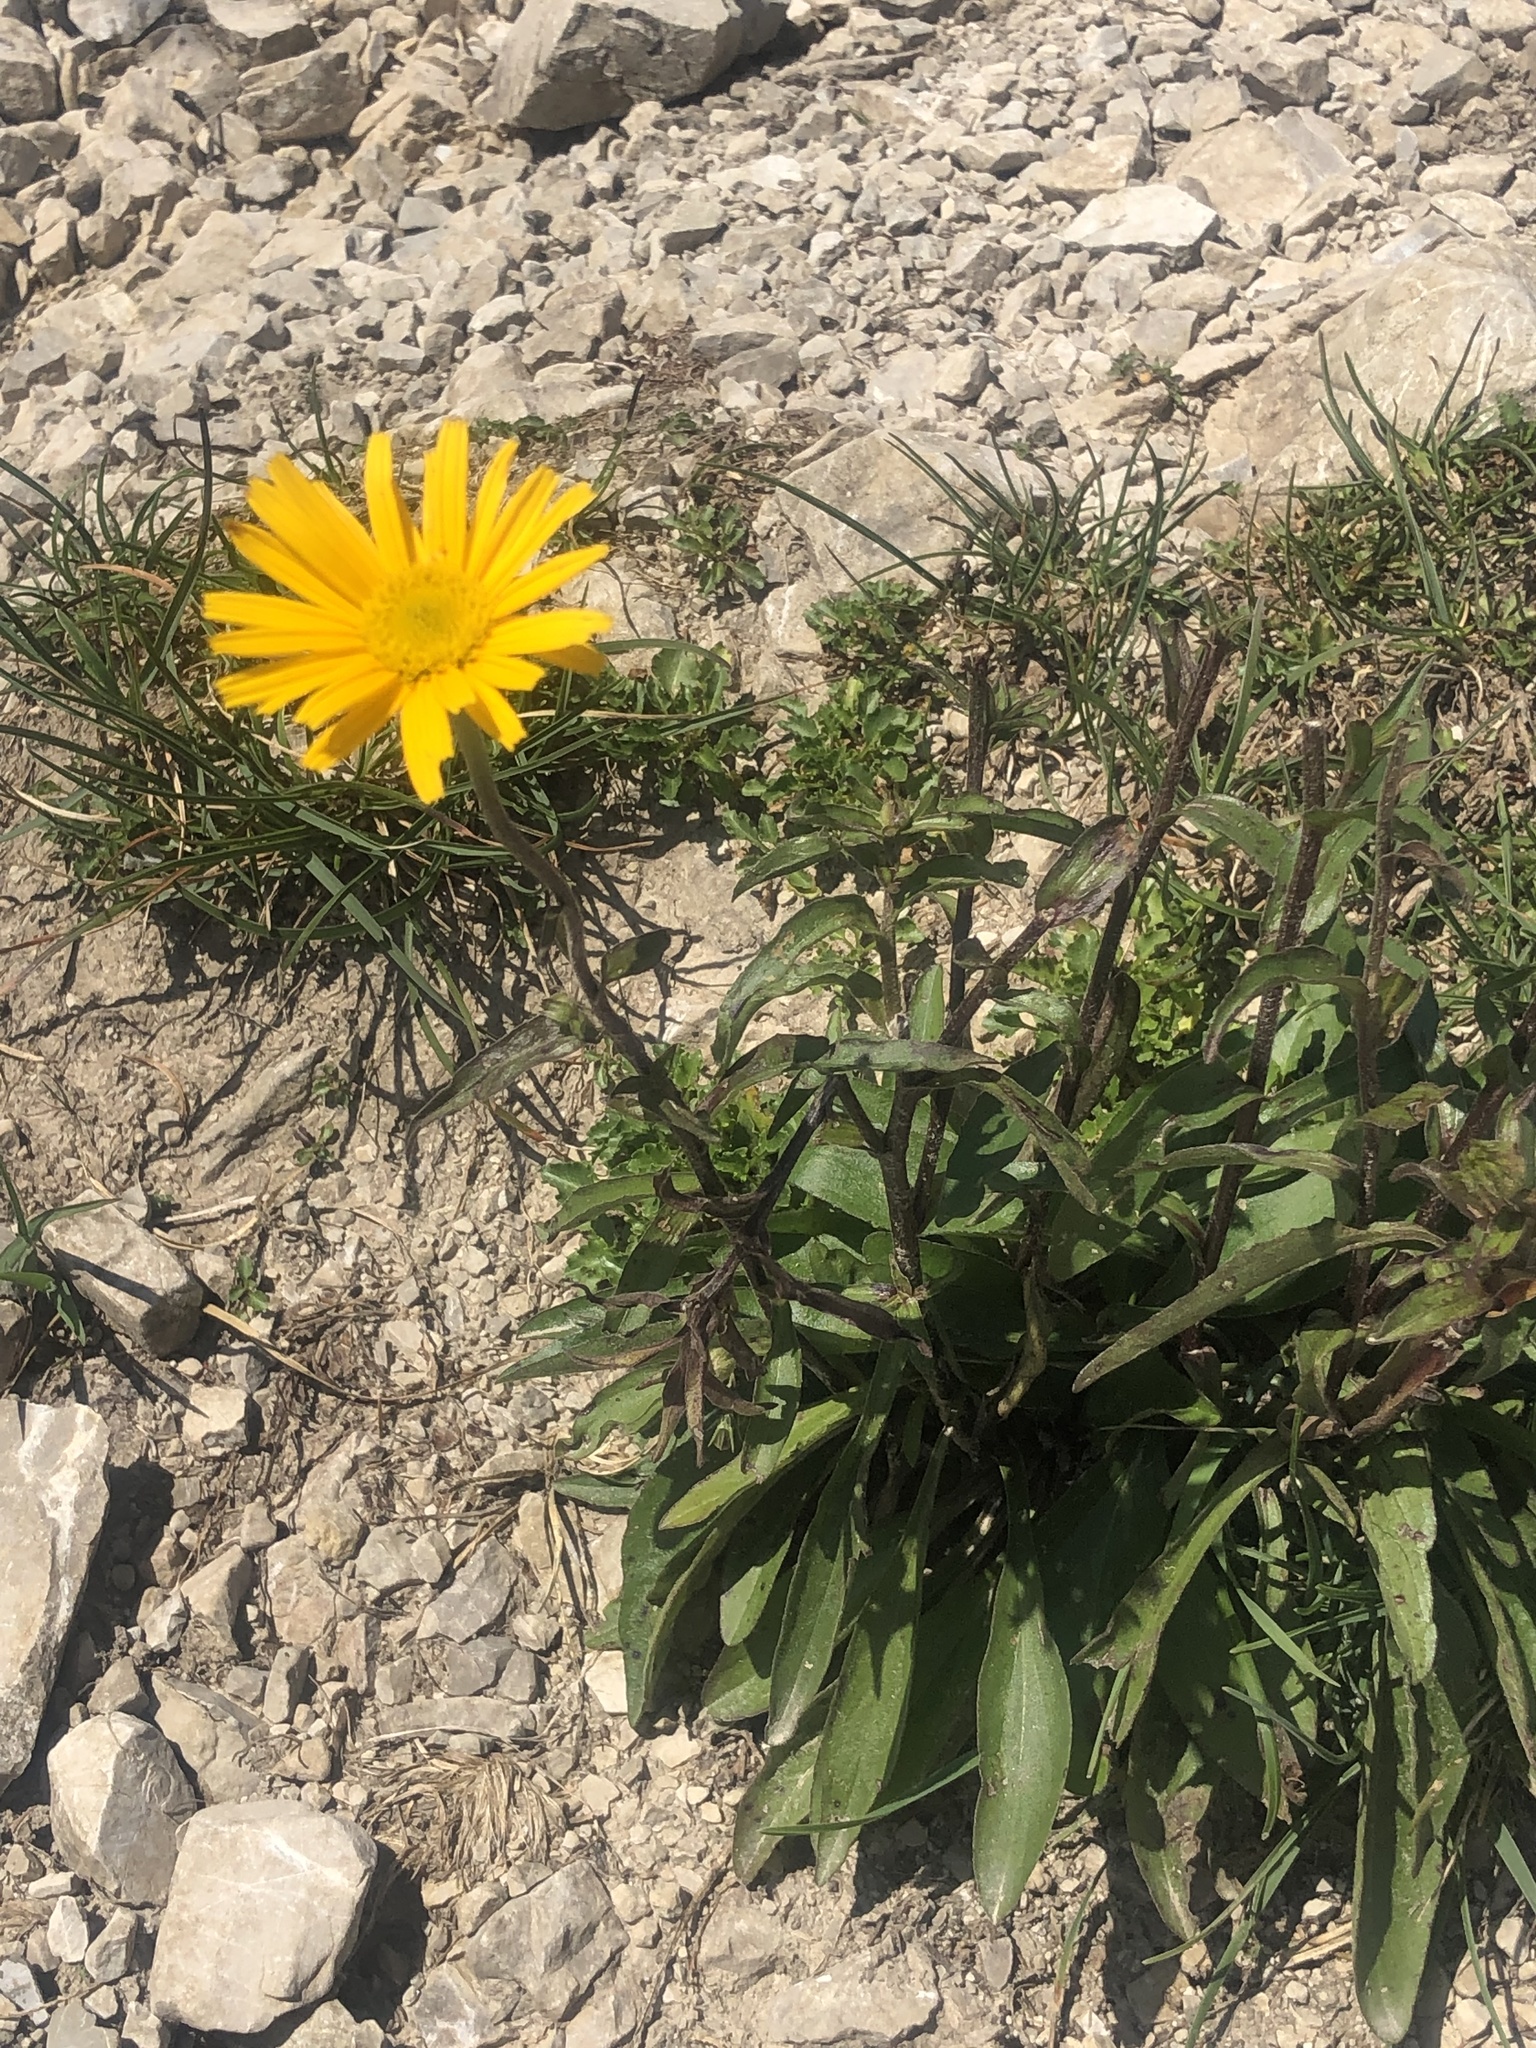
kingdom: Plantae
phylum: Tracheophyta
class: Magnoliopsida
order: Asterales
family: Asteraceae
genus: Buphthalmum
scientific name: Buphthalmum salicifolium
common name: Willow-leaved yellow-oxeye
